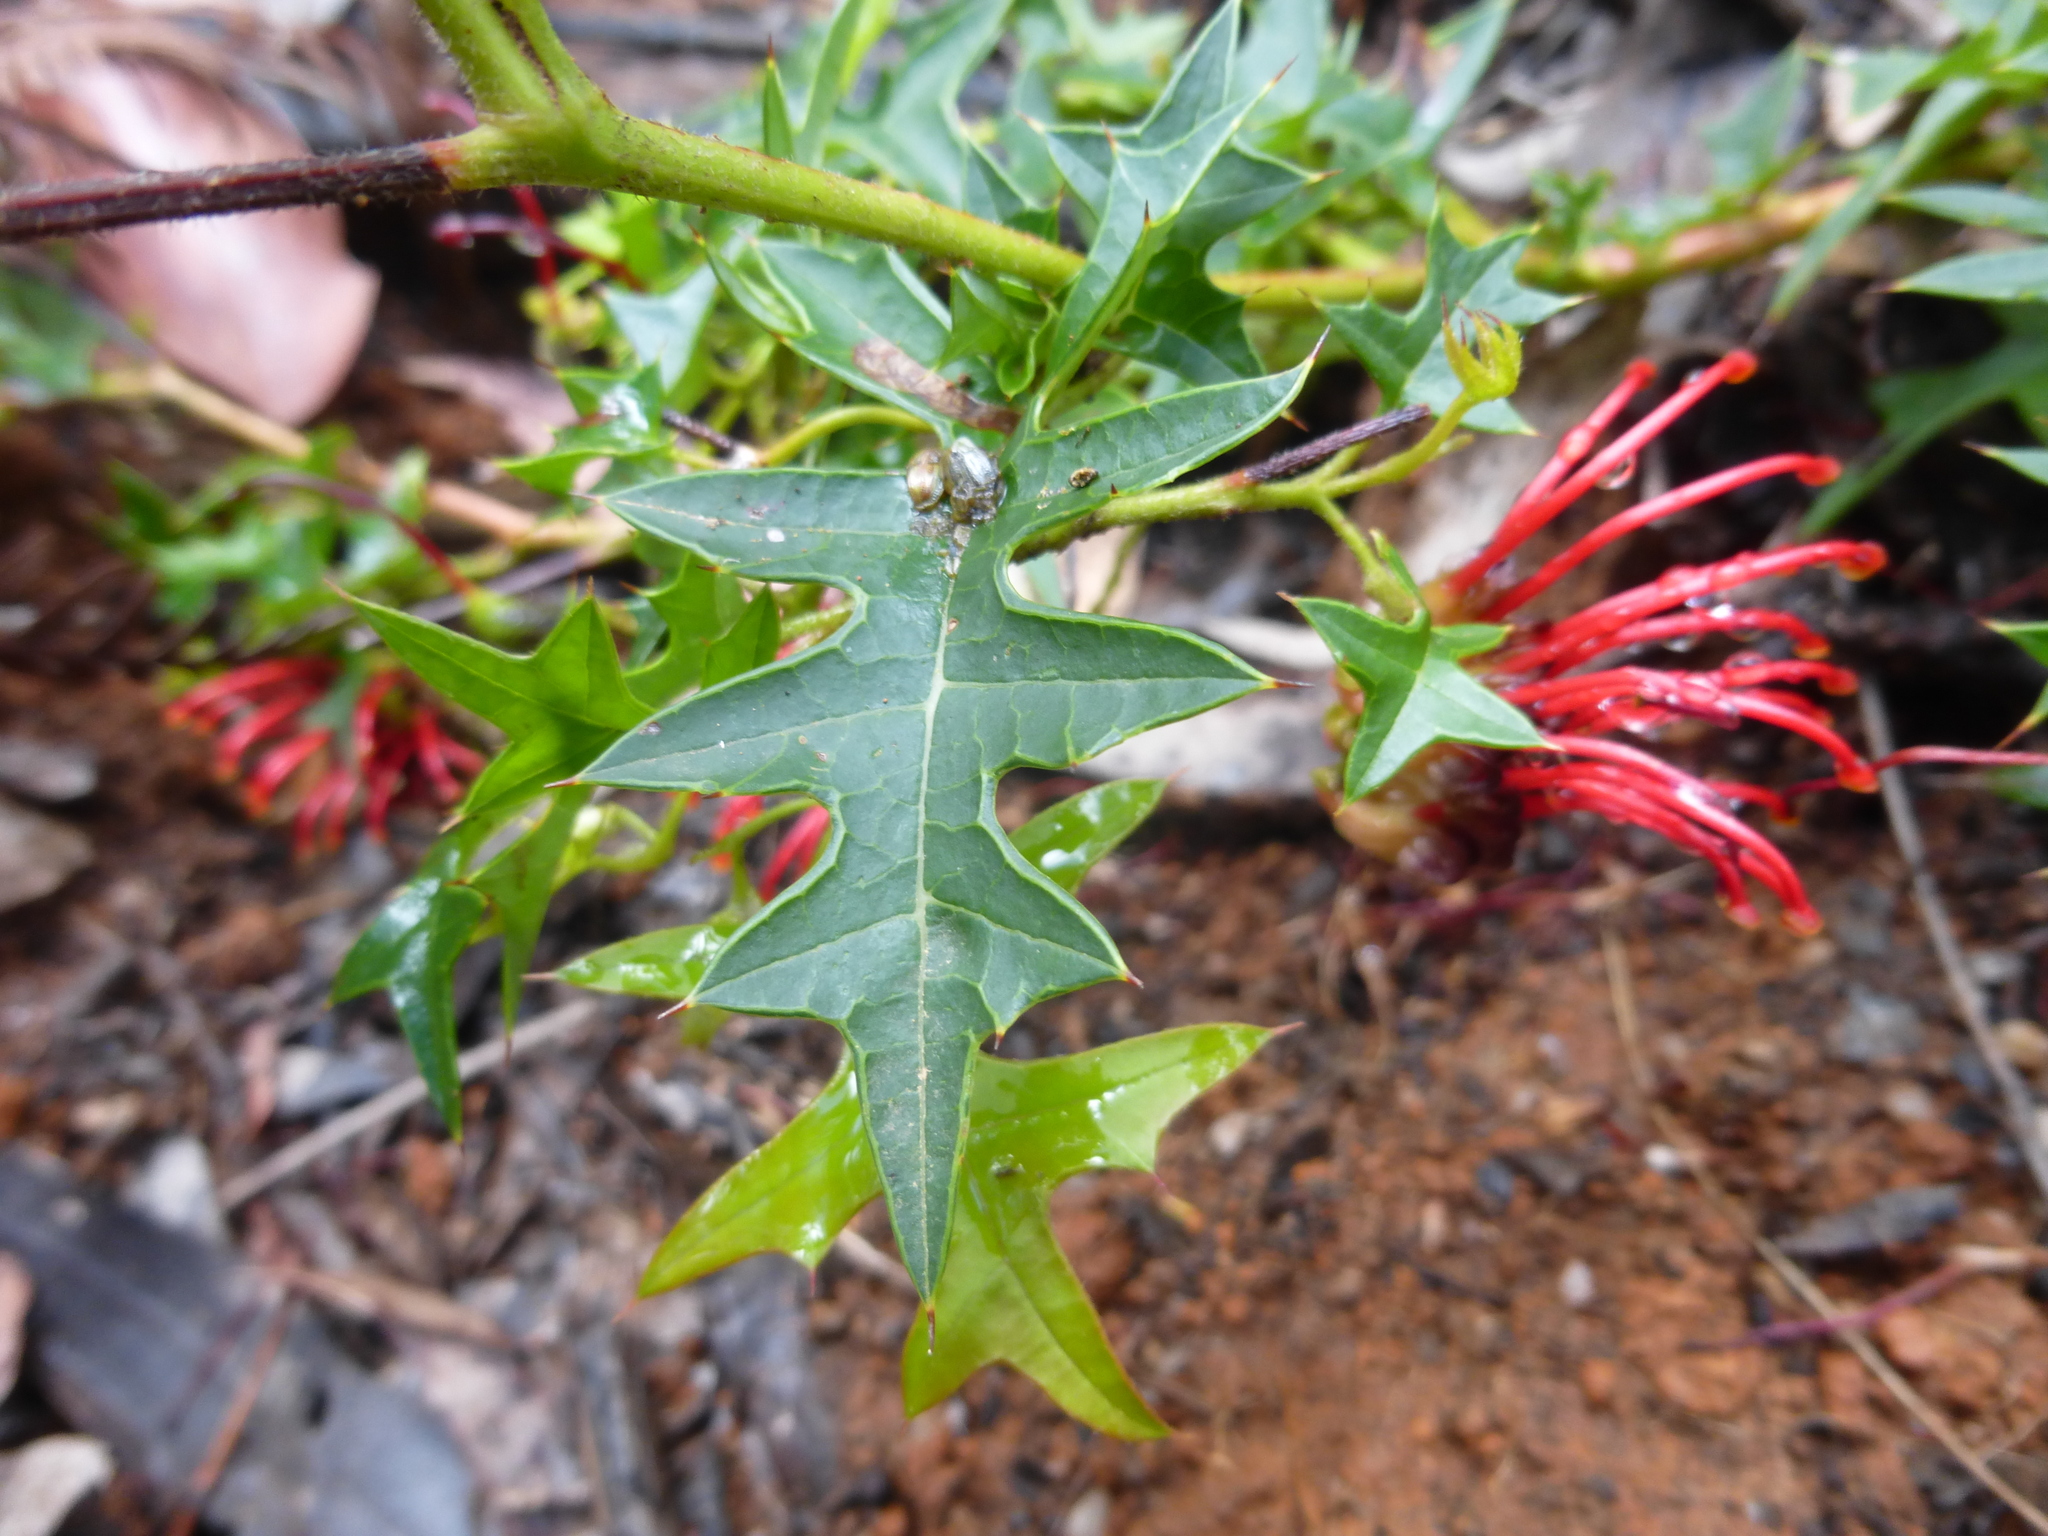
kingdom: Plantae
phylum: Tracheophyta
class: Magnoliopsida
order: Proteales
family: Proteaceae
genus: Grevillea
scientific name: Grevillea montis-cole
